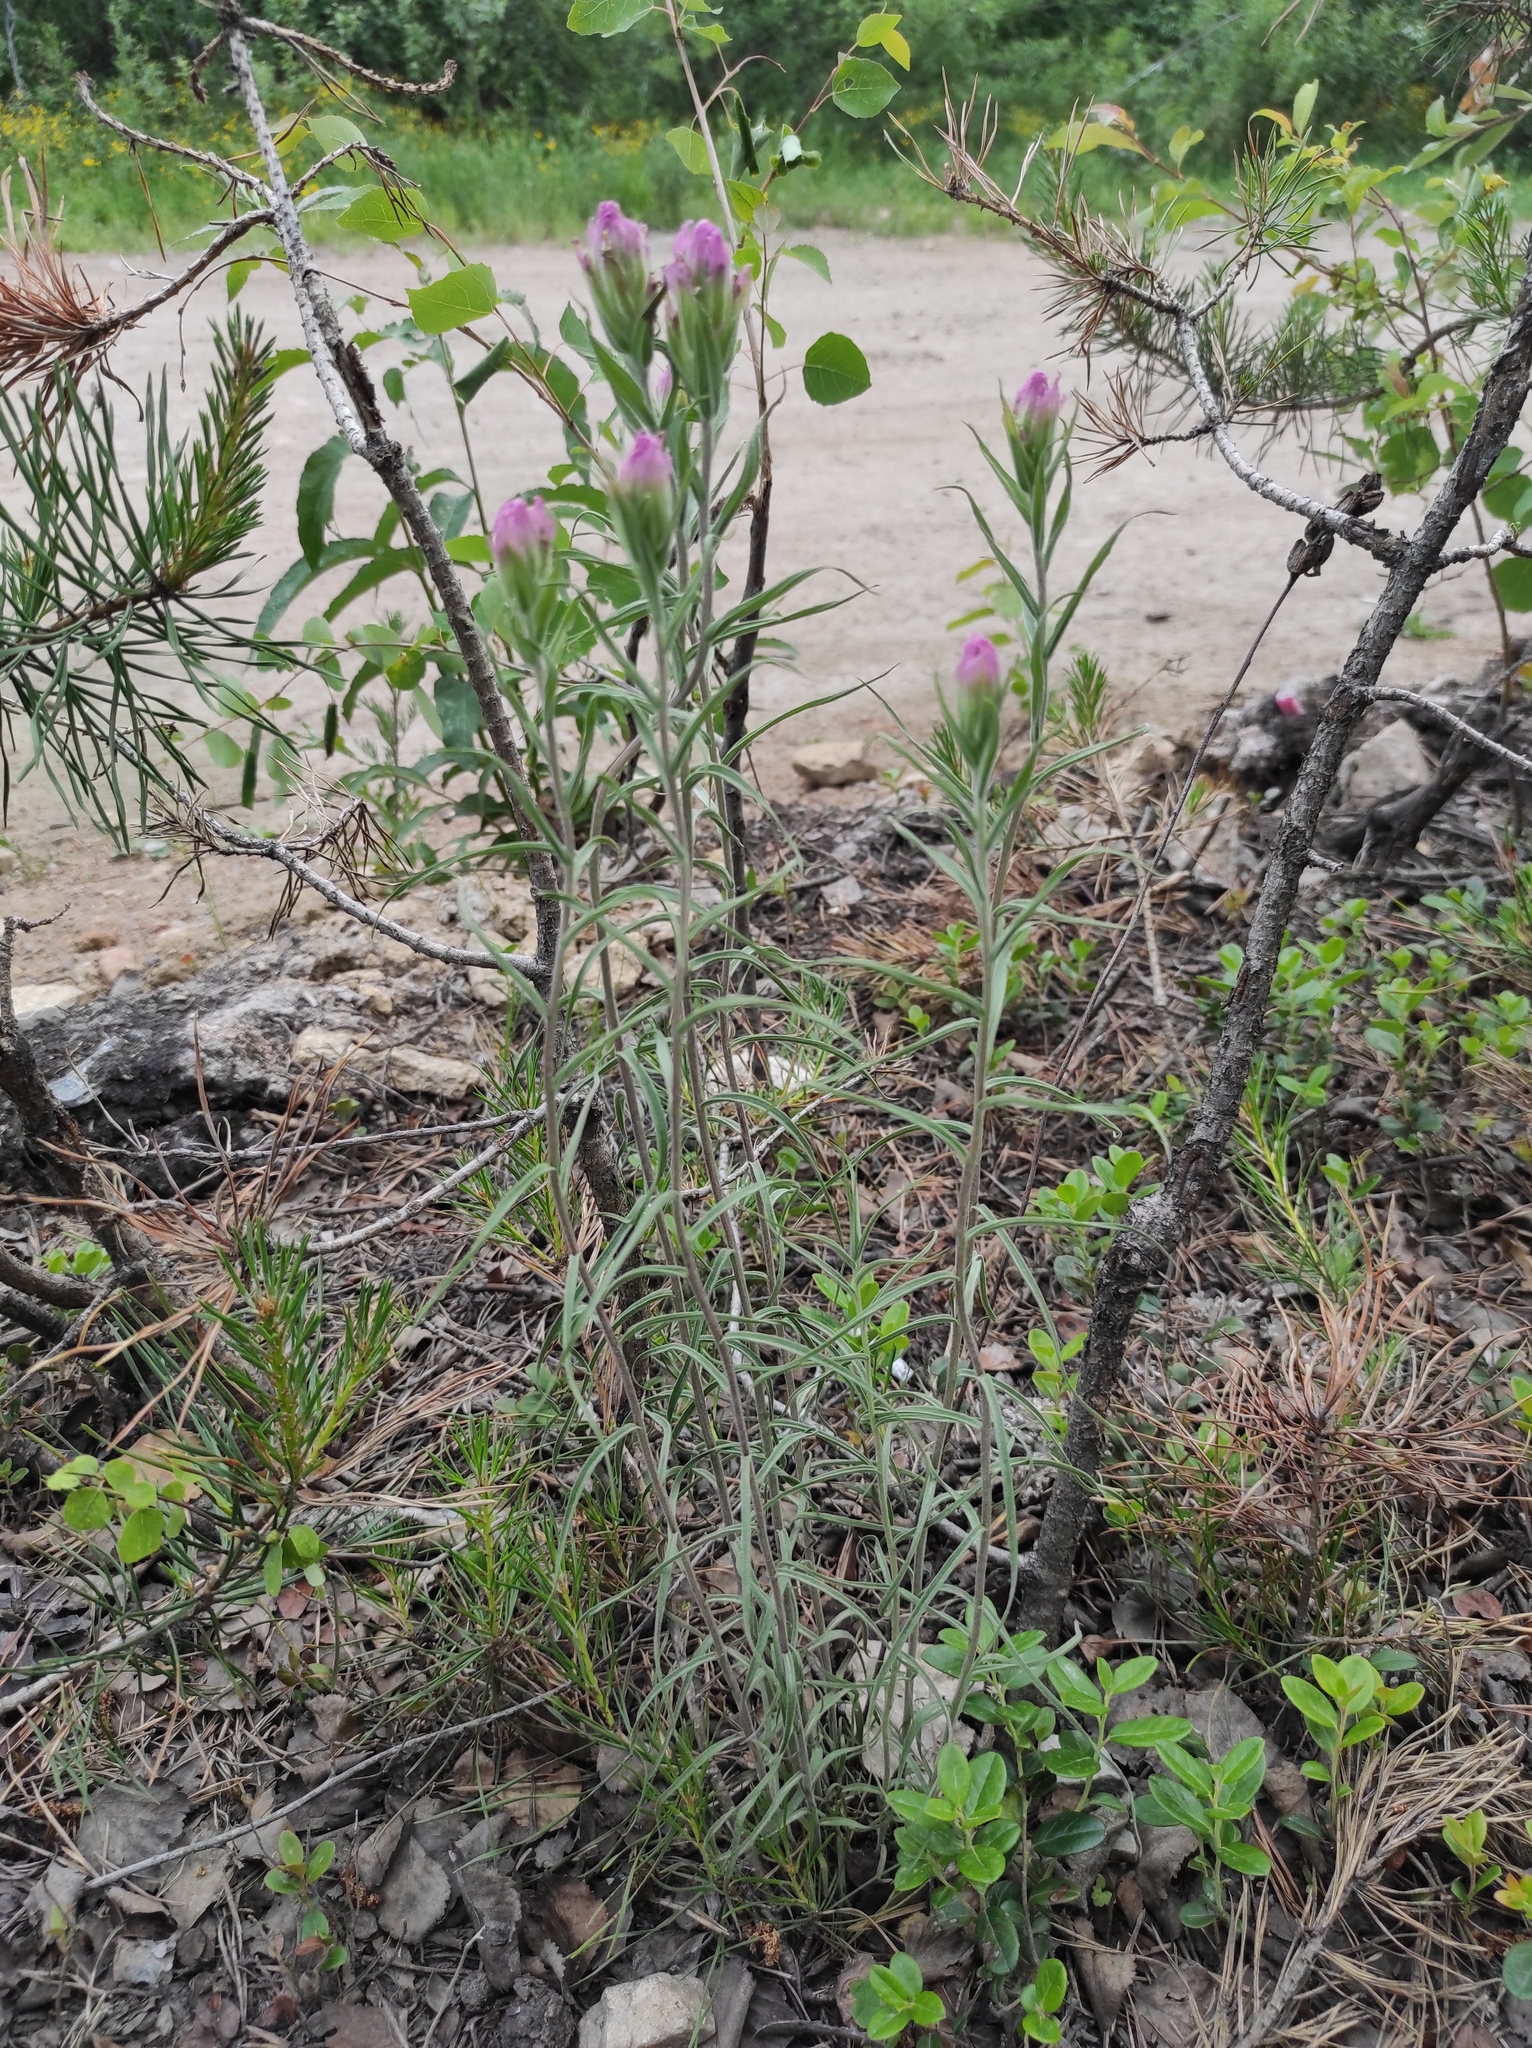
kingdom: Plantae
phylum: Tracheophyta
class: Magnoliopsida
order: Lamiales
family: Orobanchaceae
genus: Castilleja
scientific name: Castilleja rubra
